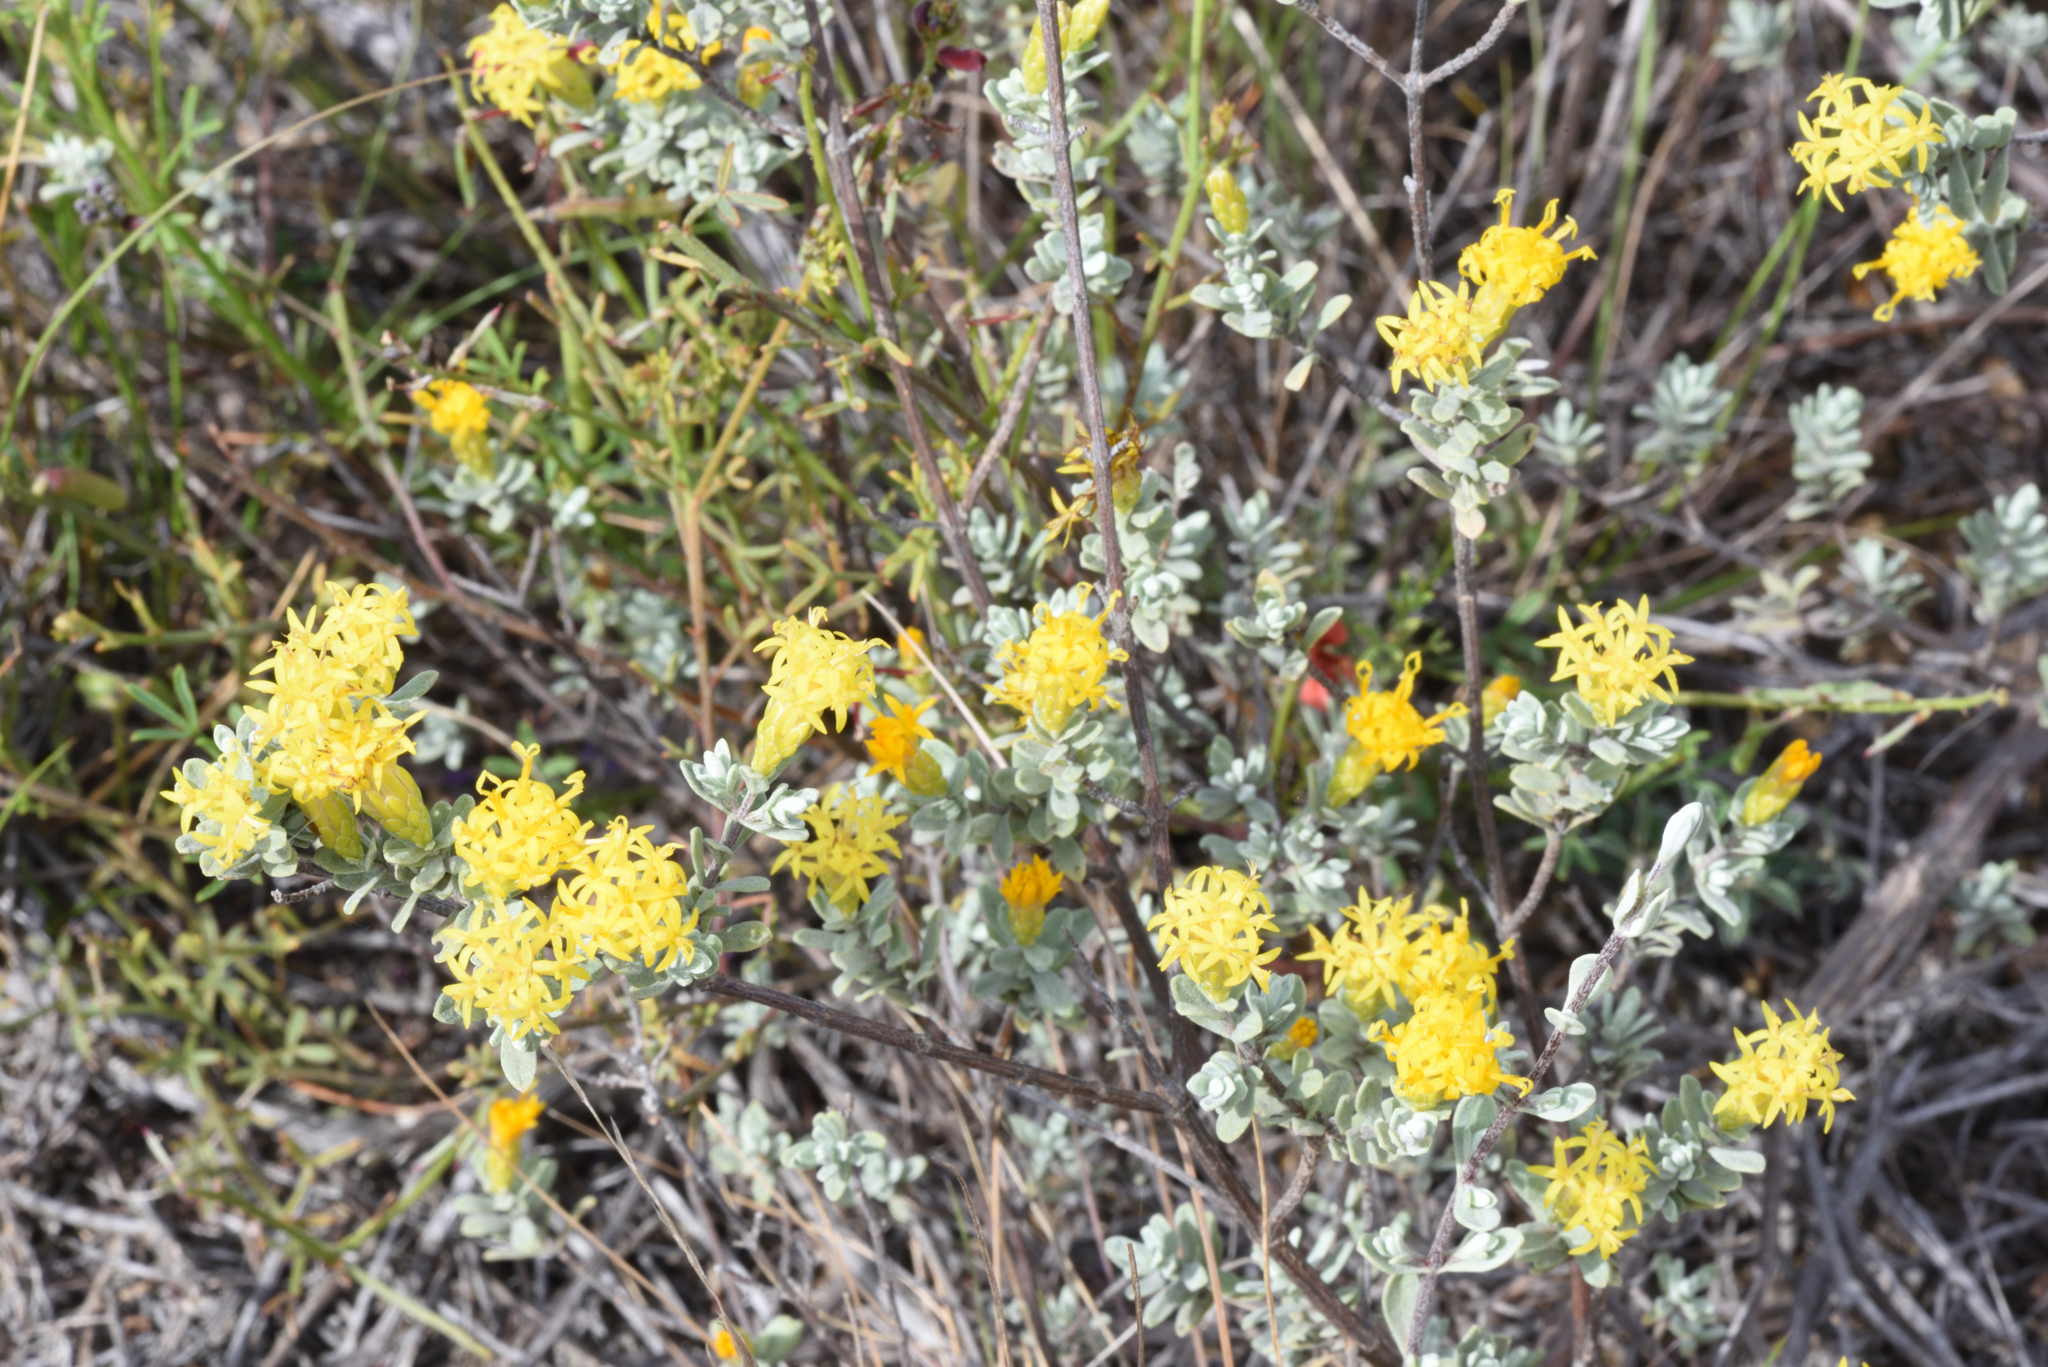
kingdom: Plantae
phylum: Tracheophyta
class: Magnoliopsida
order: Asterales
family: Asteraceae
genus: Pteronia
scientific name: Pteronia incana
